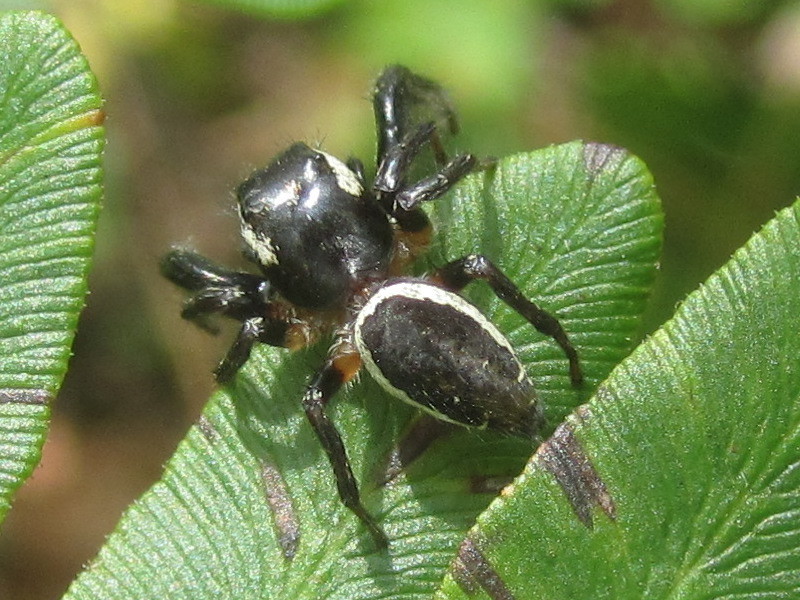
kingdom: Animalia
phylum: Arthropoda
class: Arachnida
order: Araneae
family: Salticidae
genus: Eris
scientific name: Eris militaris
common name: Bronze jumper
